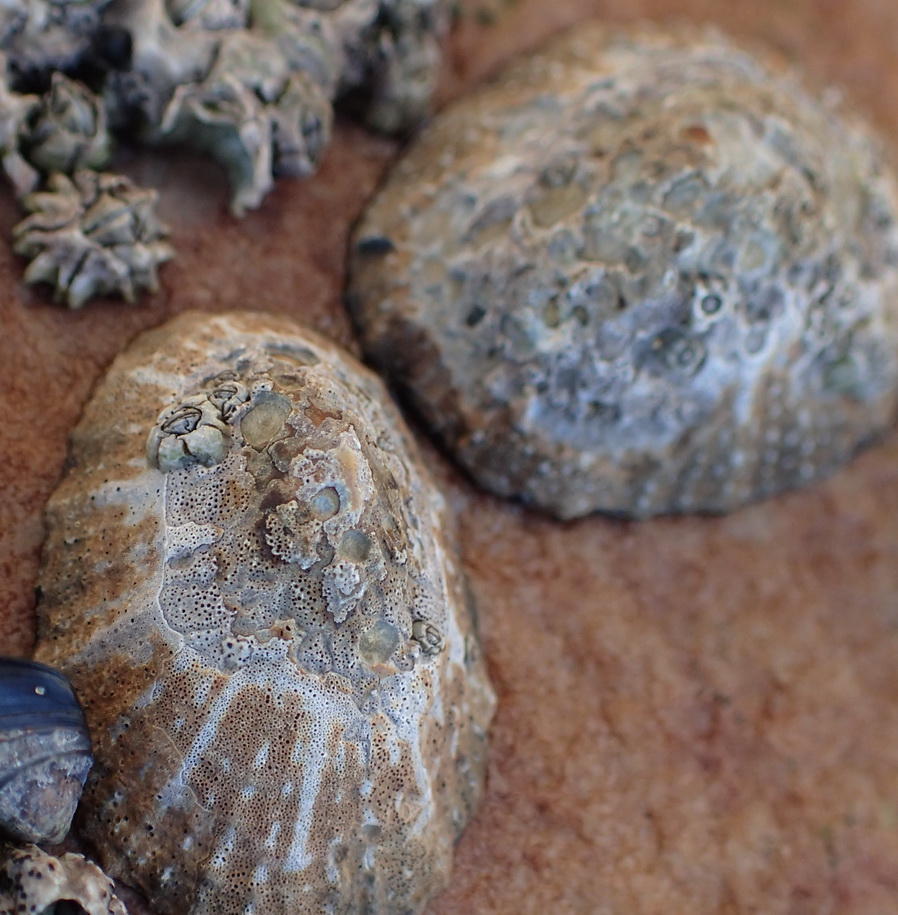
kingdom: Animalia
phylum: Mollusca
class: Gastropoda
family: Patellidae
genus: Scutellastra
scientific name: Scutellastra granularis
